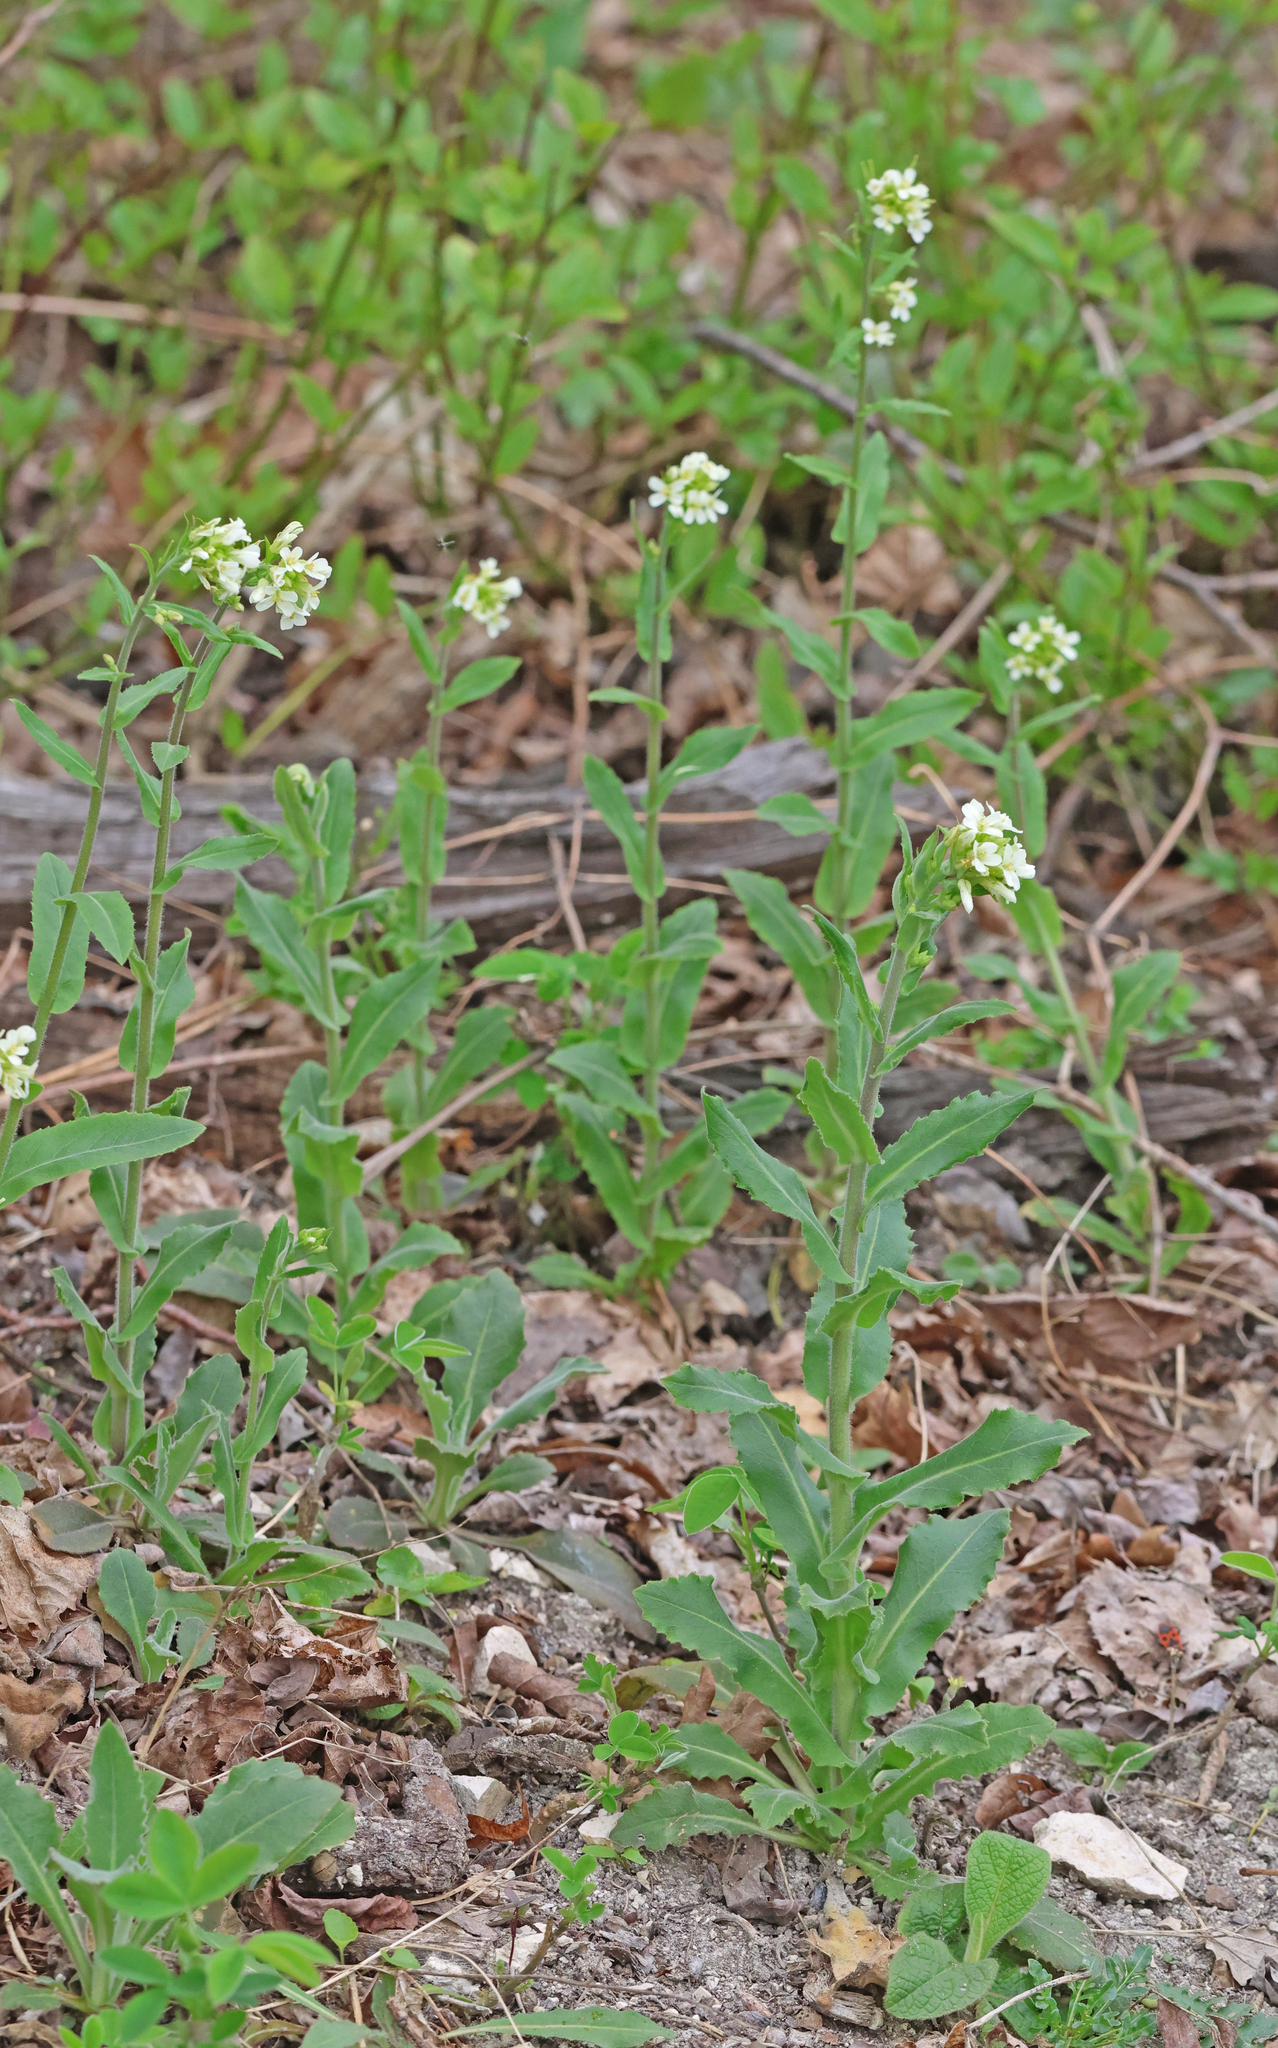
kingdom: Plantae
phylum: Tracheophyta
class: Magnoliopsida
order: Brassicales
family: Brassicaceae
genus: Pseudoturritis
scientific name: Pseudoturritis turrita
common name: Tower cress
